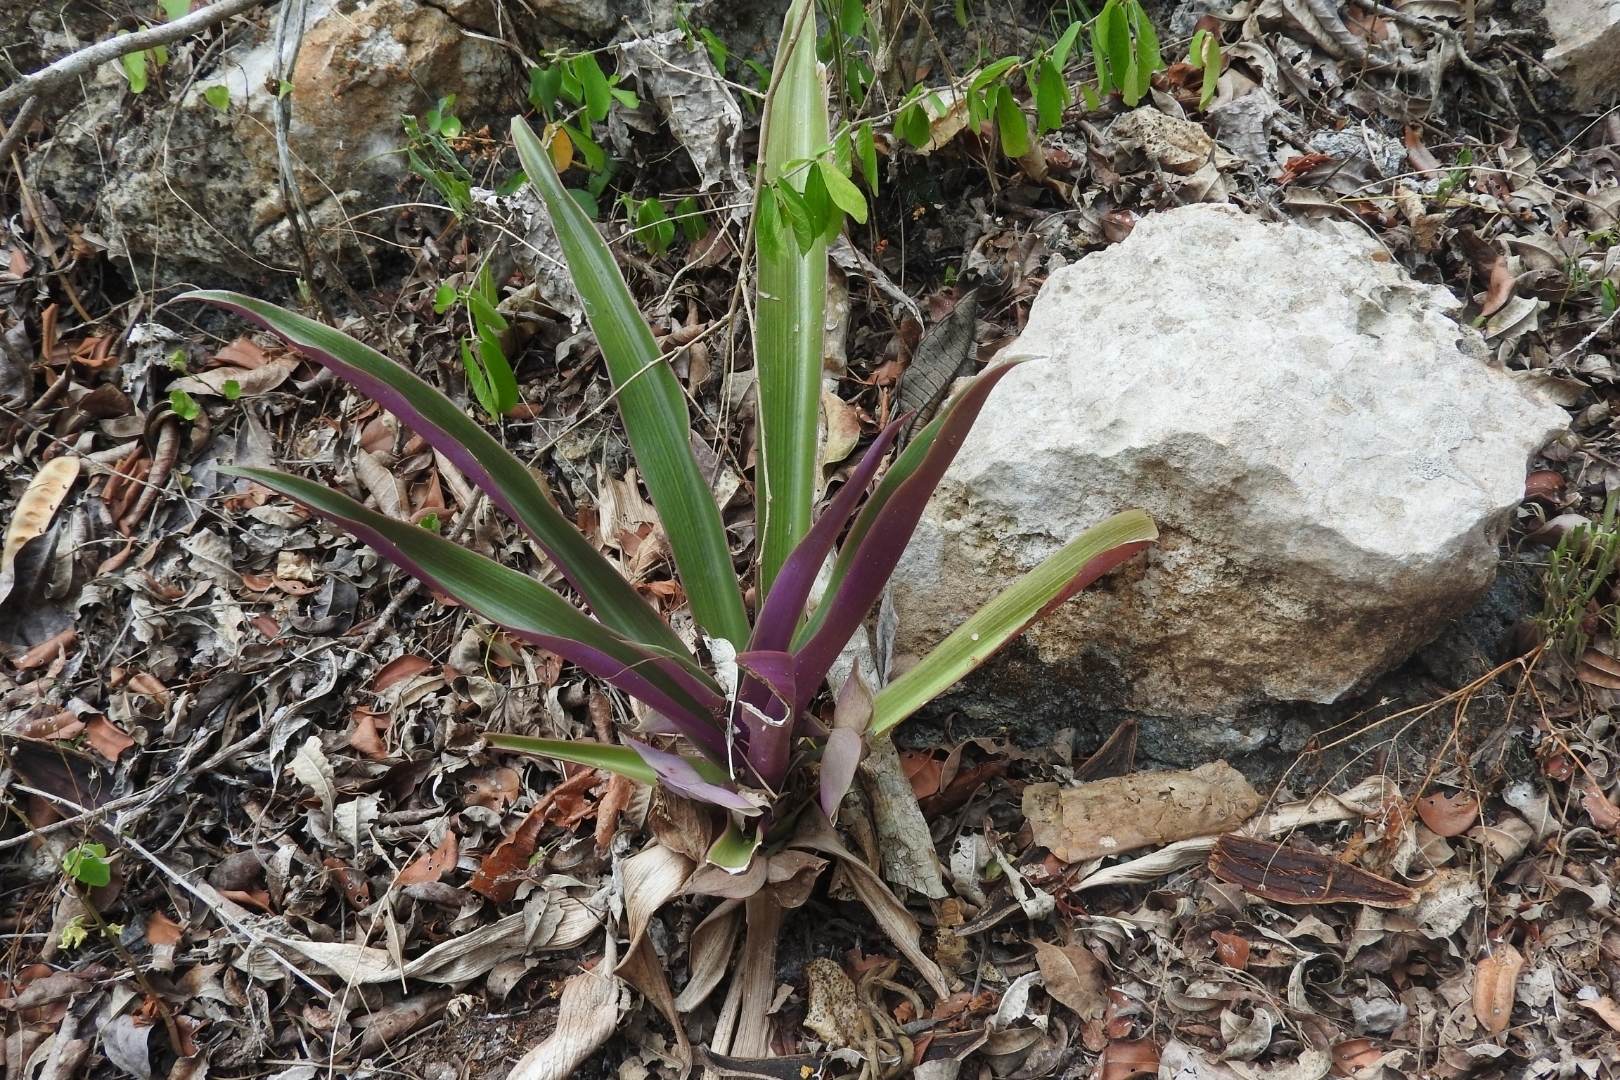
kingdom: Plantae
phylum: Tracheophyta
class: Liliopsida
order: Commelinales
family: Commelinaceae
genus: Tradescantia
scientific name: Tradescantia spathacea
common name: Boatlily
